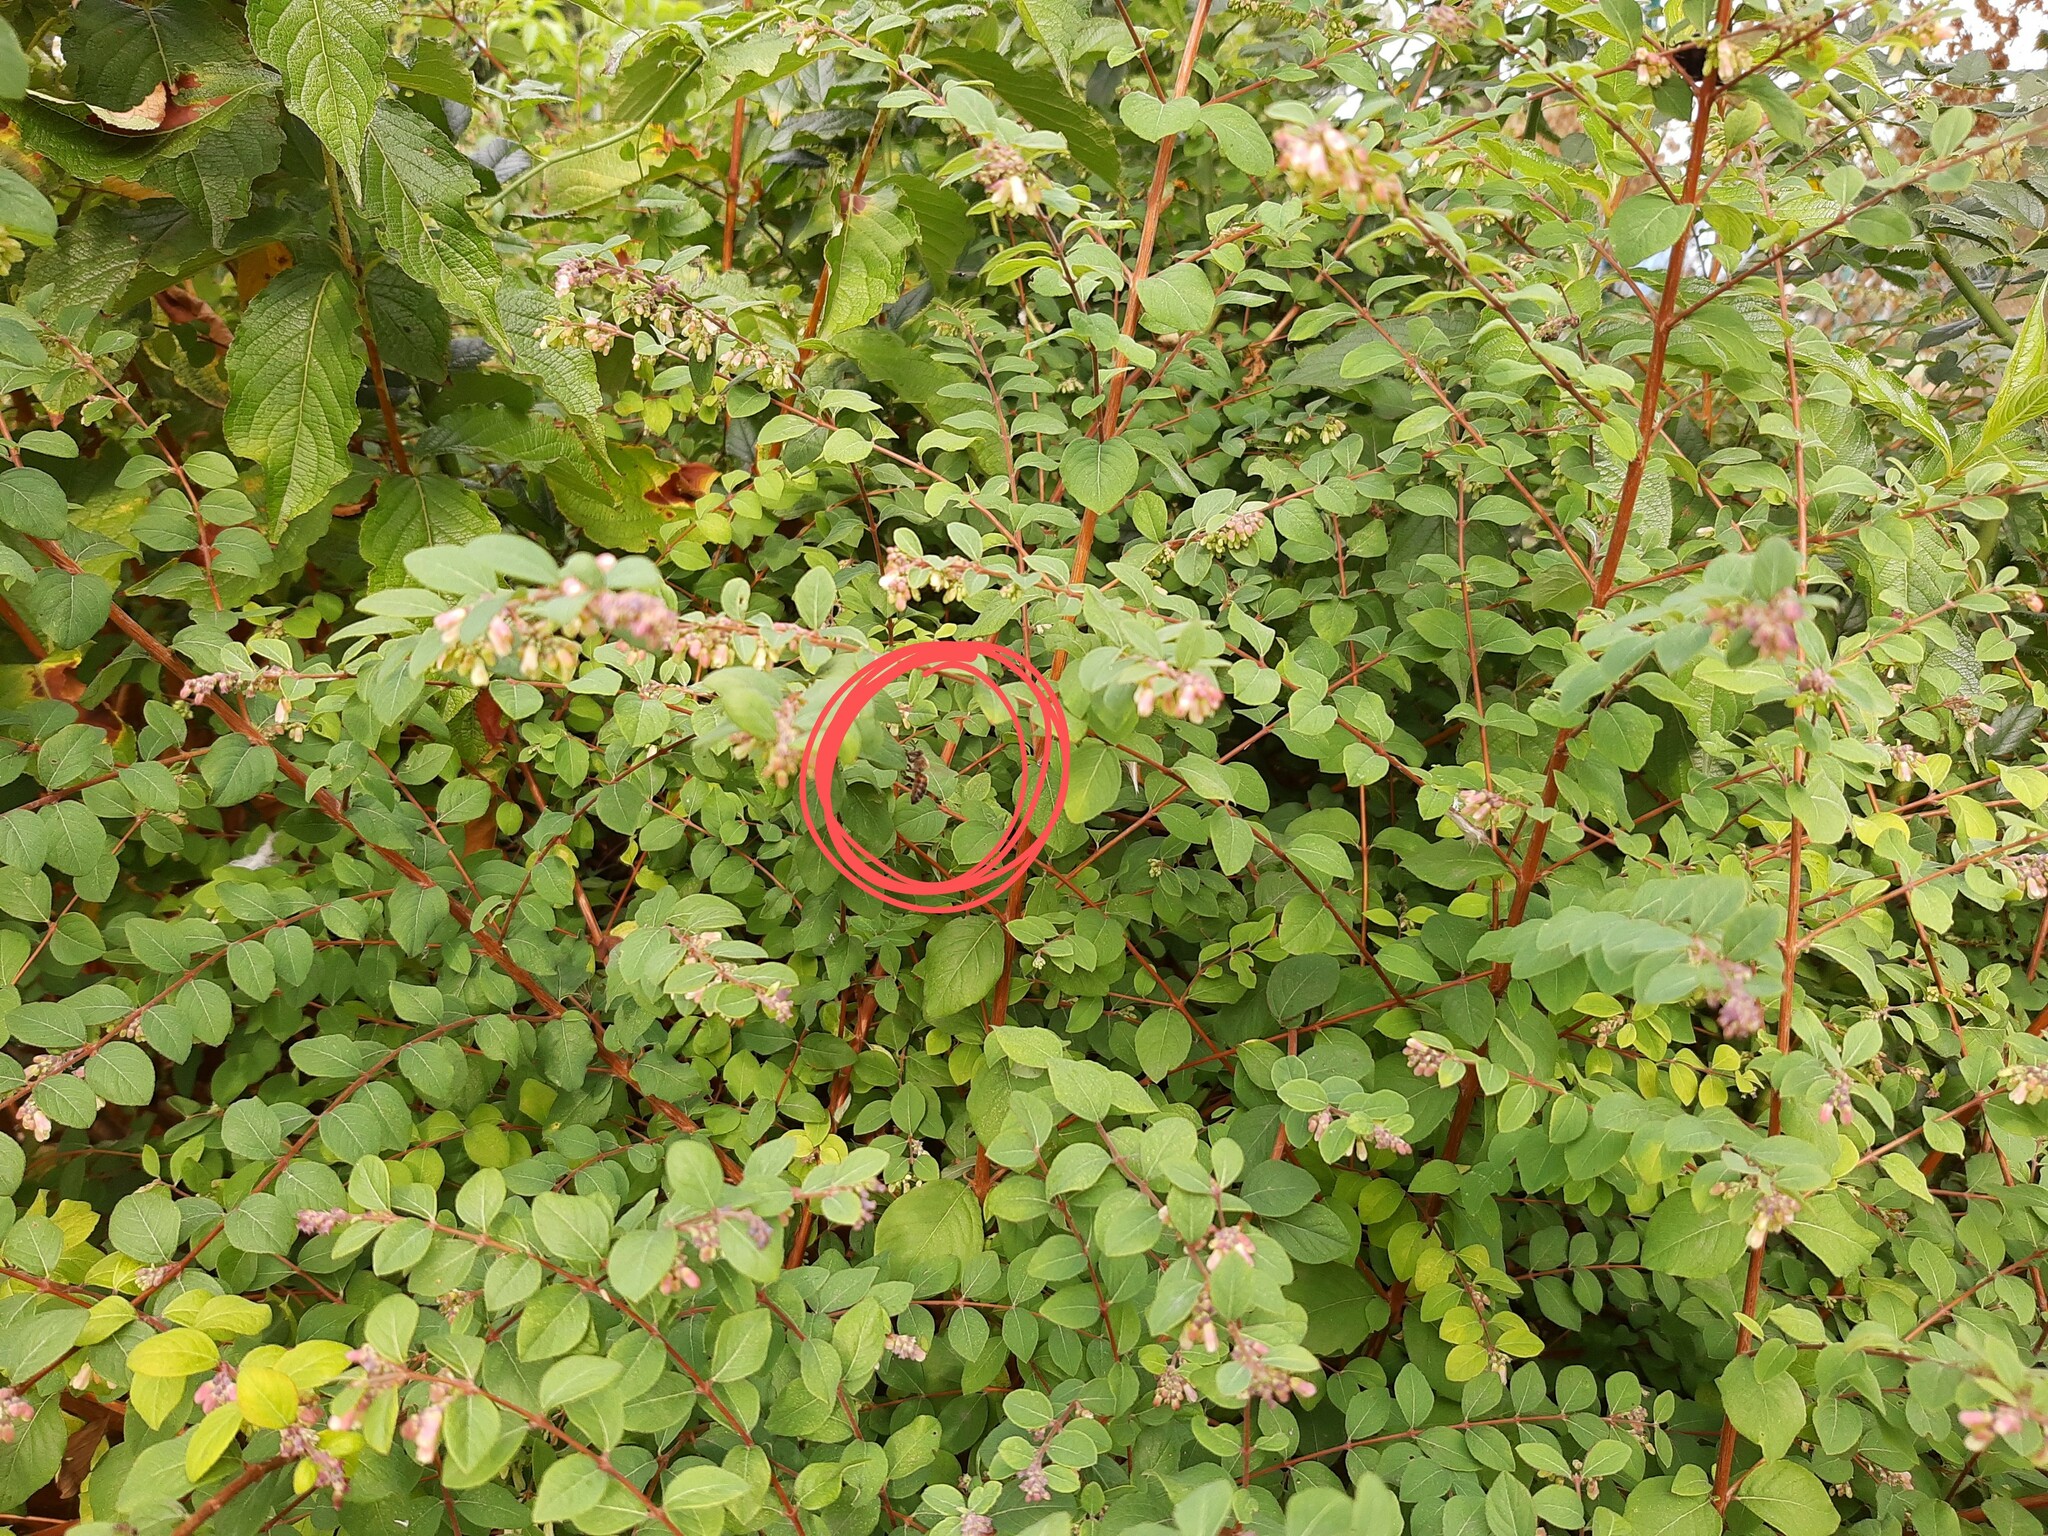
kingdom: Animalia
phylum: Arthropoda
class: Insecta
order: Hymenoptera
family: Apidae
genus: Apis
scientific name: Apis mellifera
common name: Honey bee
